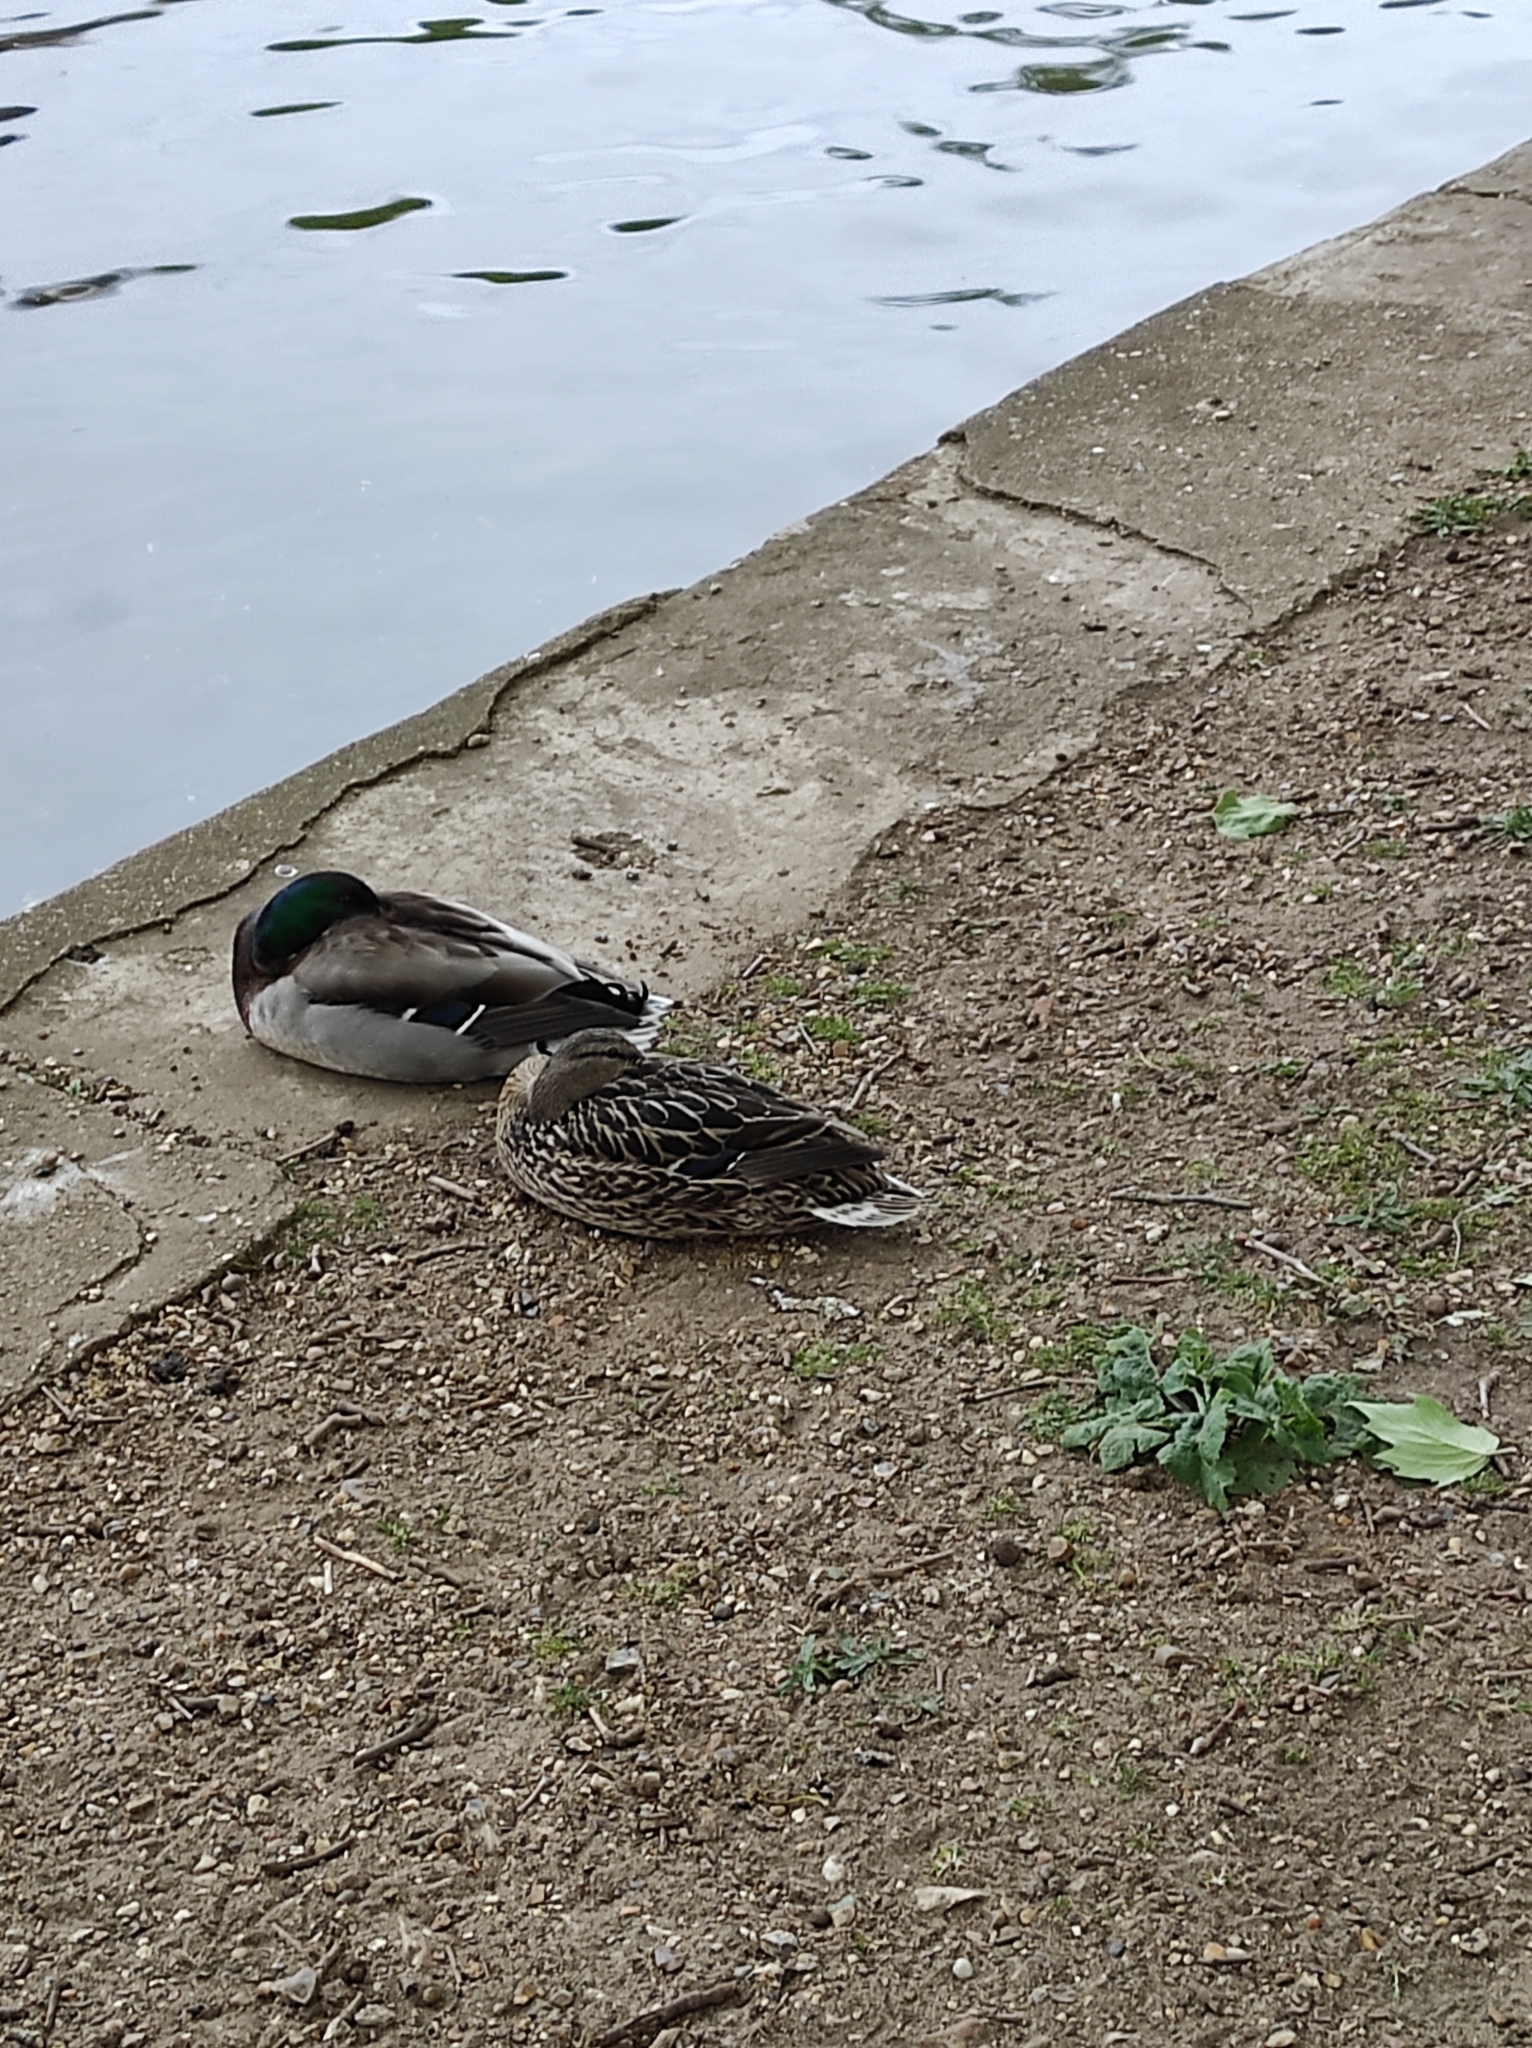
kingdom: Animalia
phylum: Chordata
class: Aves
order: Anseriformes
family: Anatidae
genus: Anas
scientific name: Anas platyrhynchos
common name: Mallard
